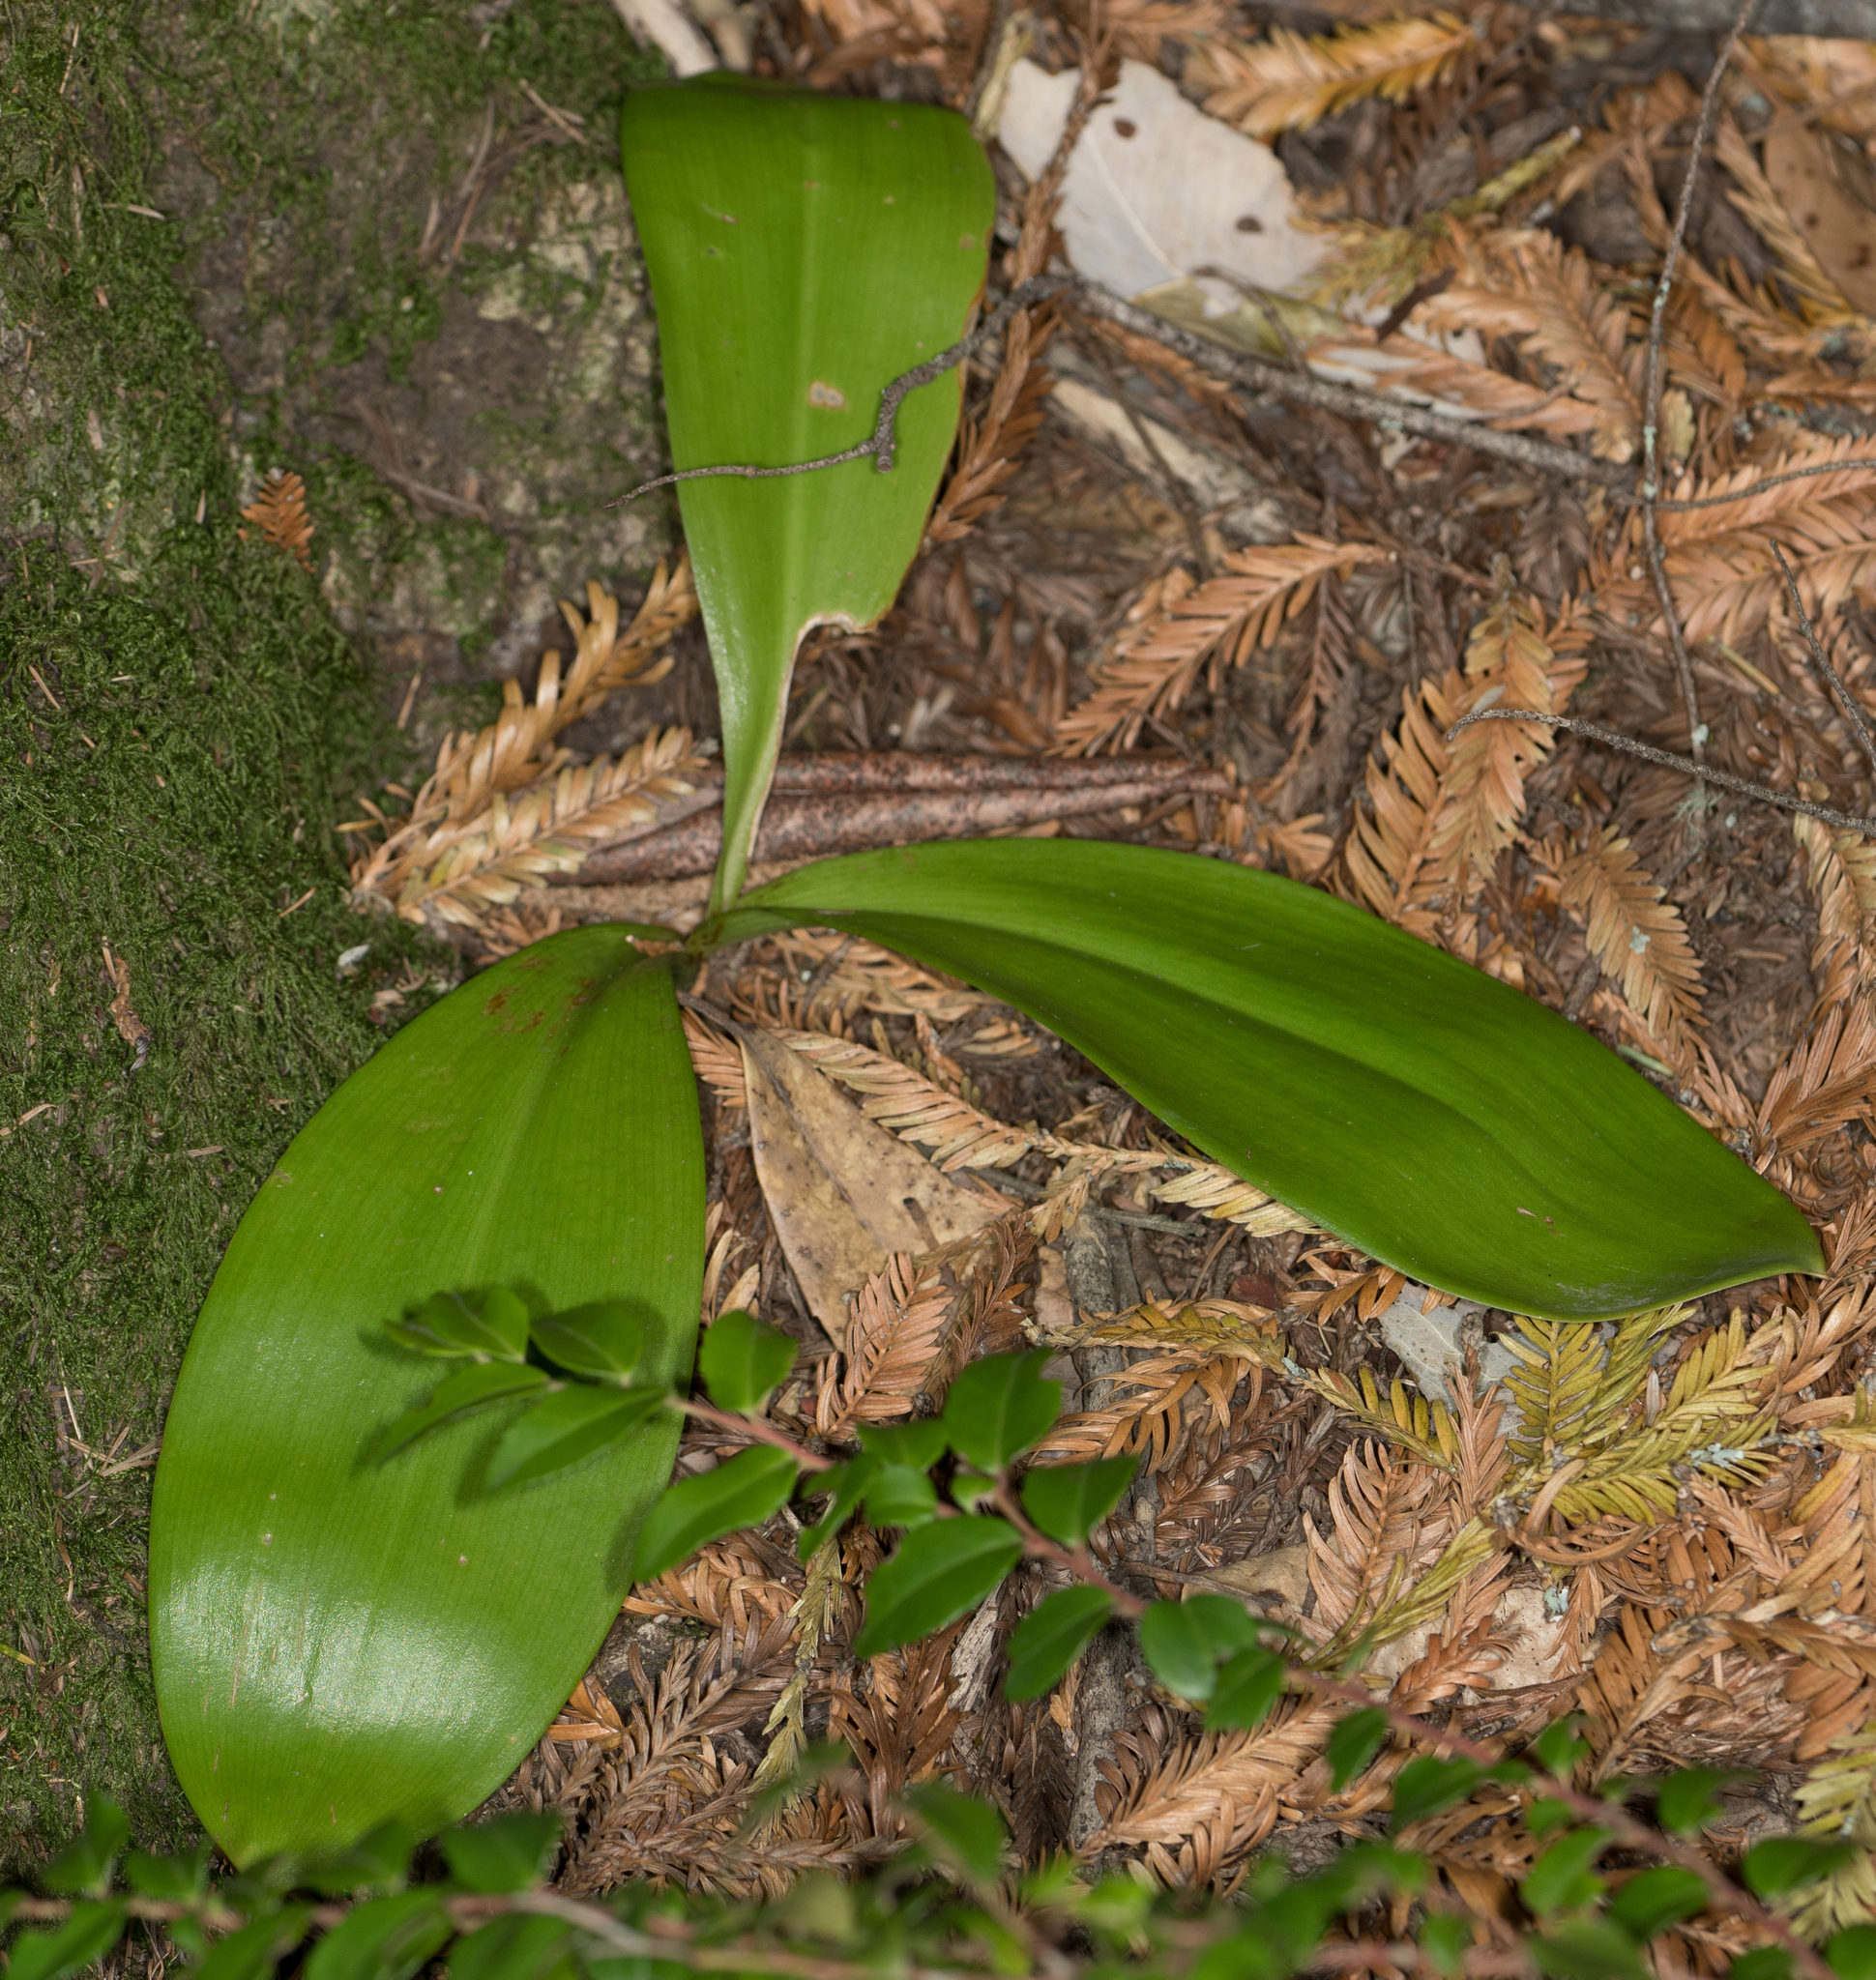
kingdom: Plantae
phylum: Tracheophyta
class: Liliopsida
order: Liliales
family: Liliaceae
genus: Clintonia
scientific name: Clintonia andrewsiana
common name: Red clintonia
